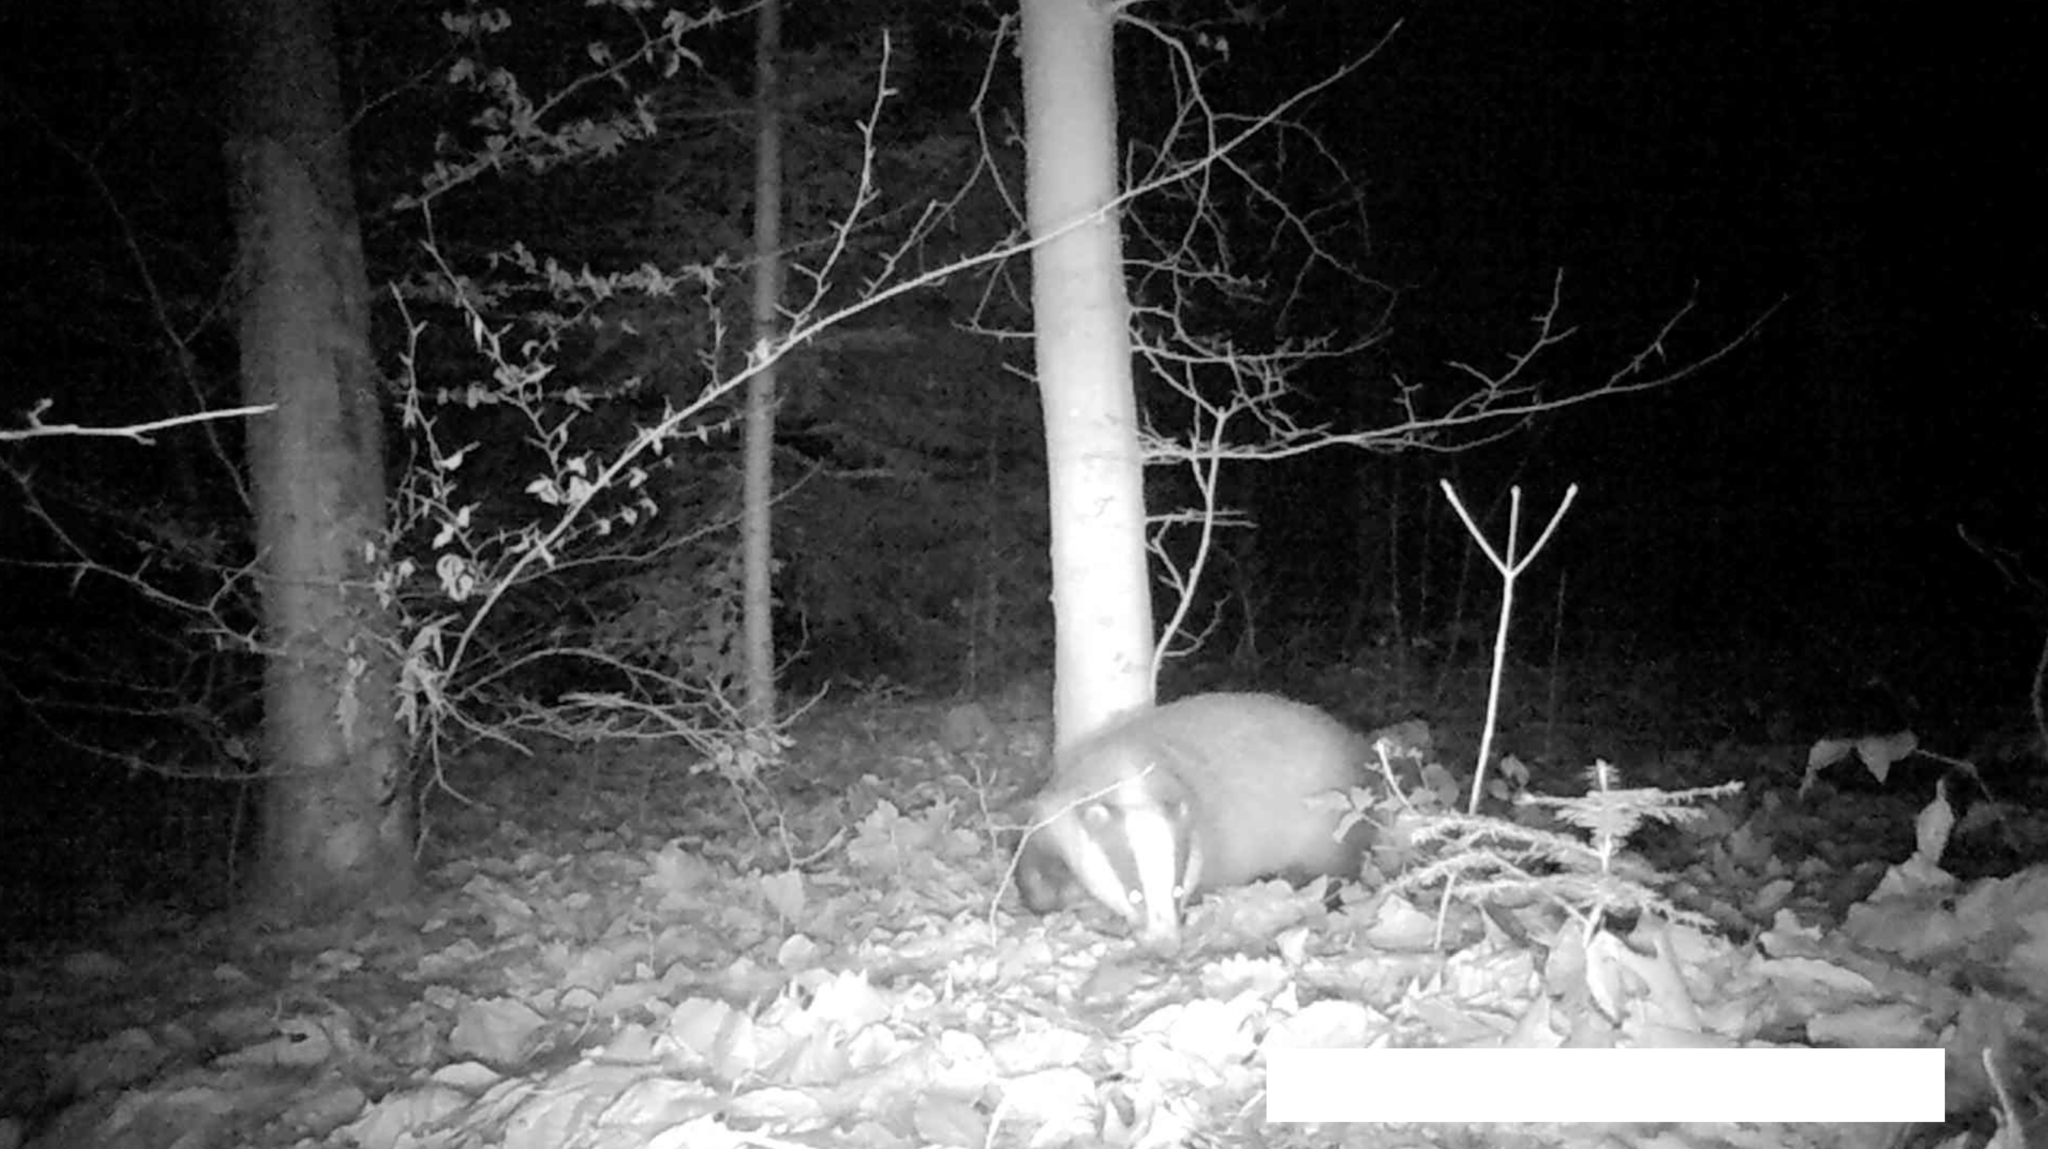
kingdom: Animalia
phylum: Chordata
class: Mammalia
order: Carnivora
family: Mustelidae
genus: Meles
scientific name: Meles meles
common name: Eurasian badger
